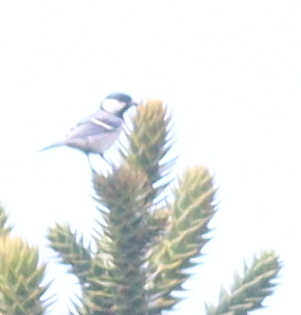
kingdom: Animalia
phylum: Chordata
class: Aves
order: Passeriformes
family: Paridae
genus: Parus
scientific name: Parus cinereus
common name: Cinereous tit
